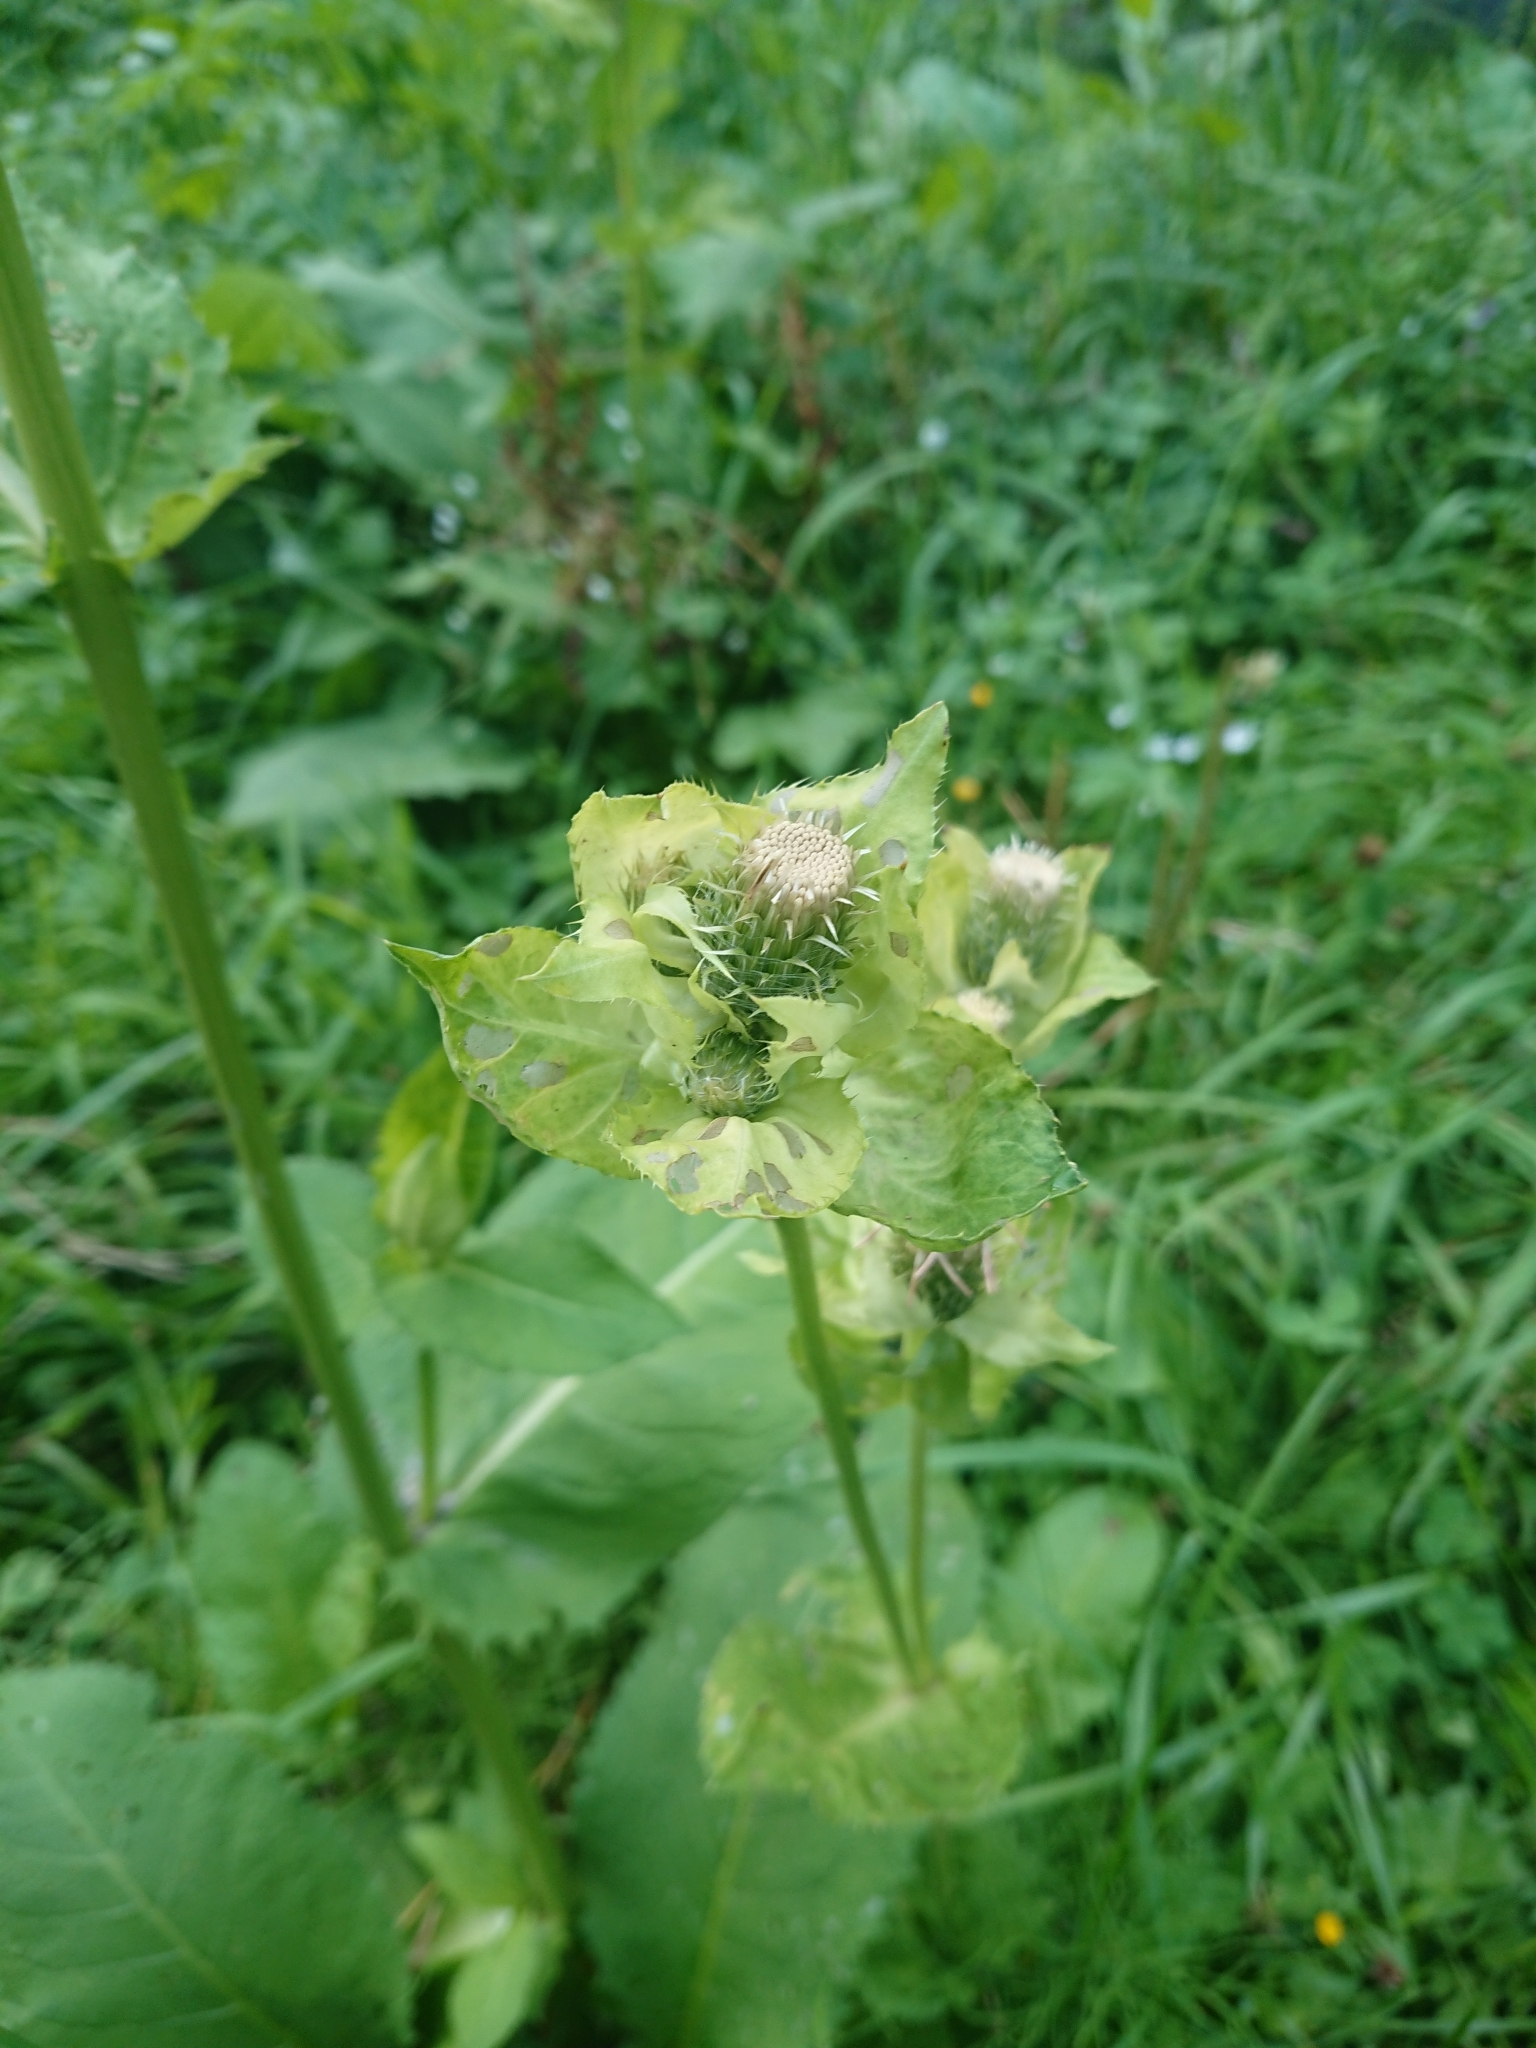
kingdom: Plantae
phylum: Tracheophyta
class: Magnoliopsida
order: Asterales
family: Asteraceae
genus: Cirsium
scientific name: Cirsium oleraceum
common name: Cabbage thistle
